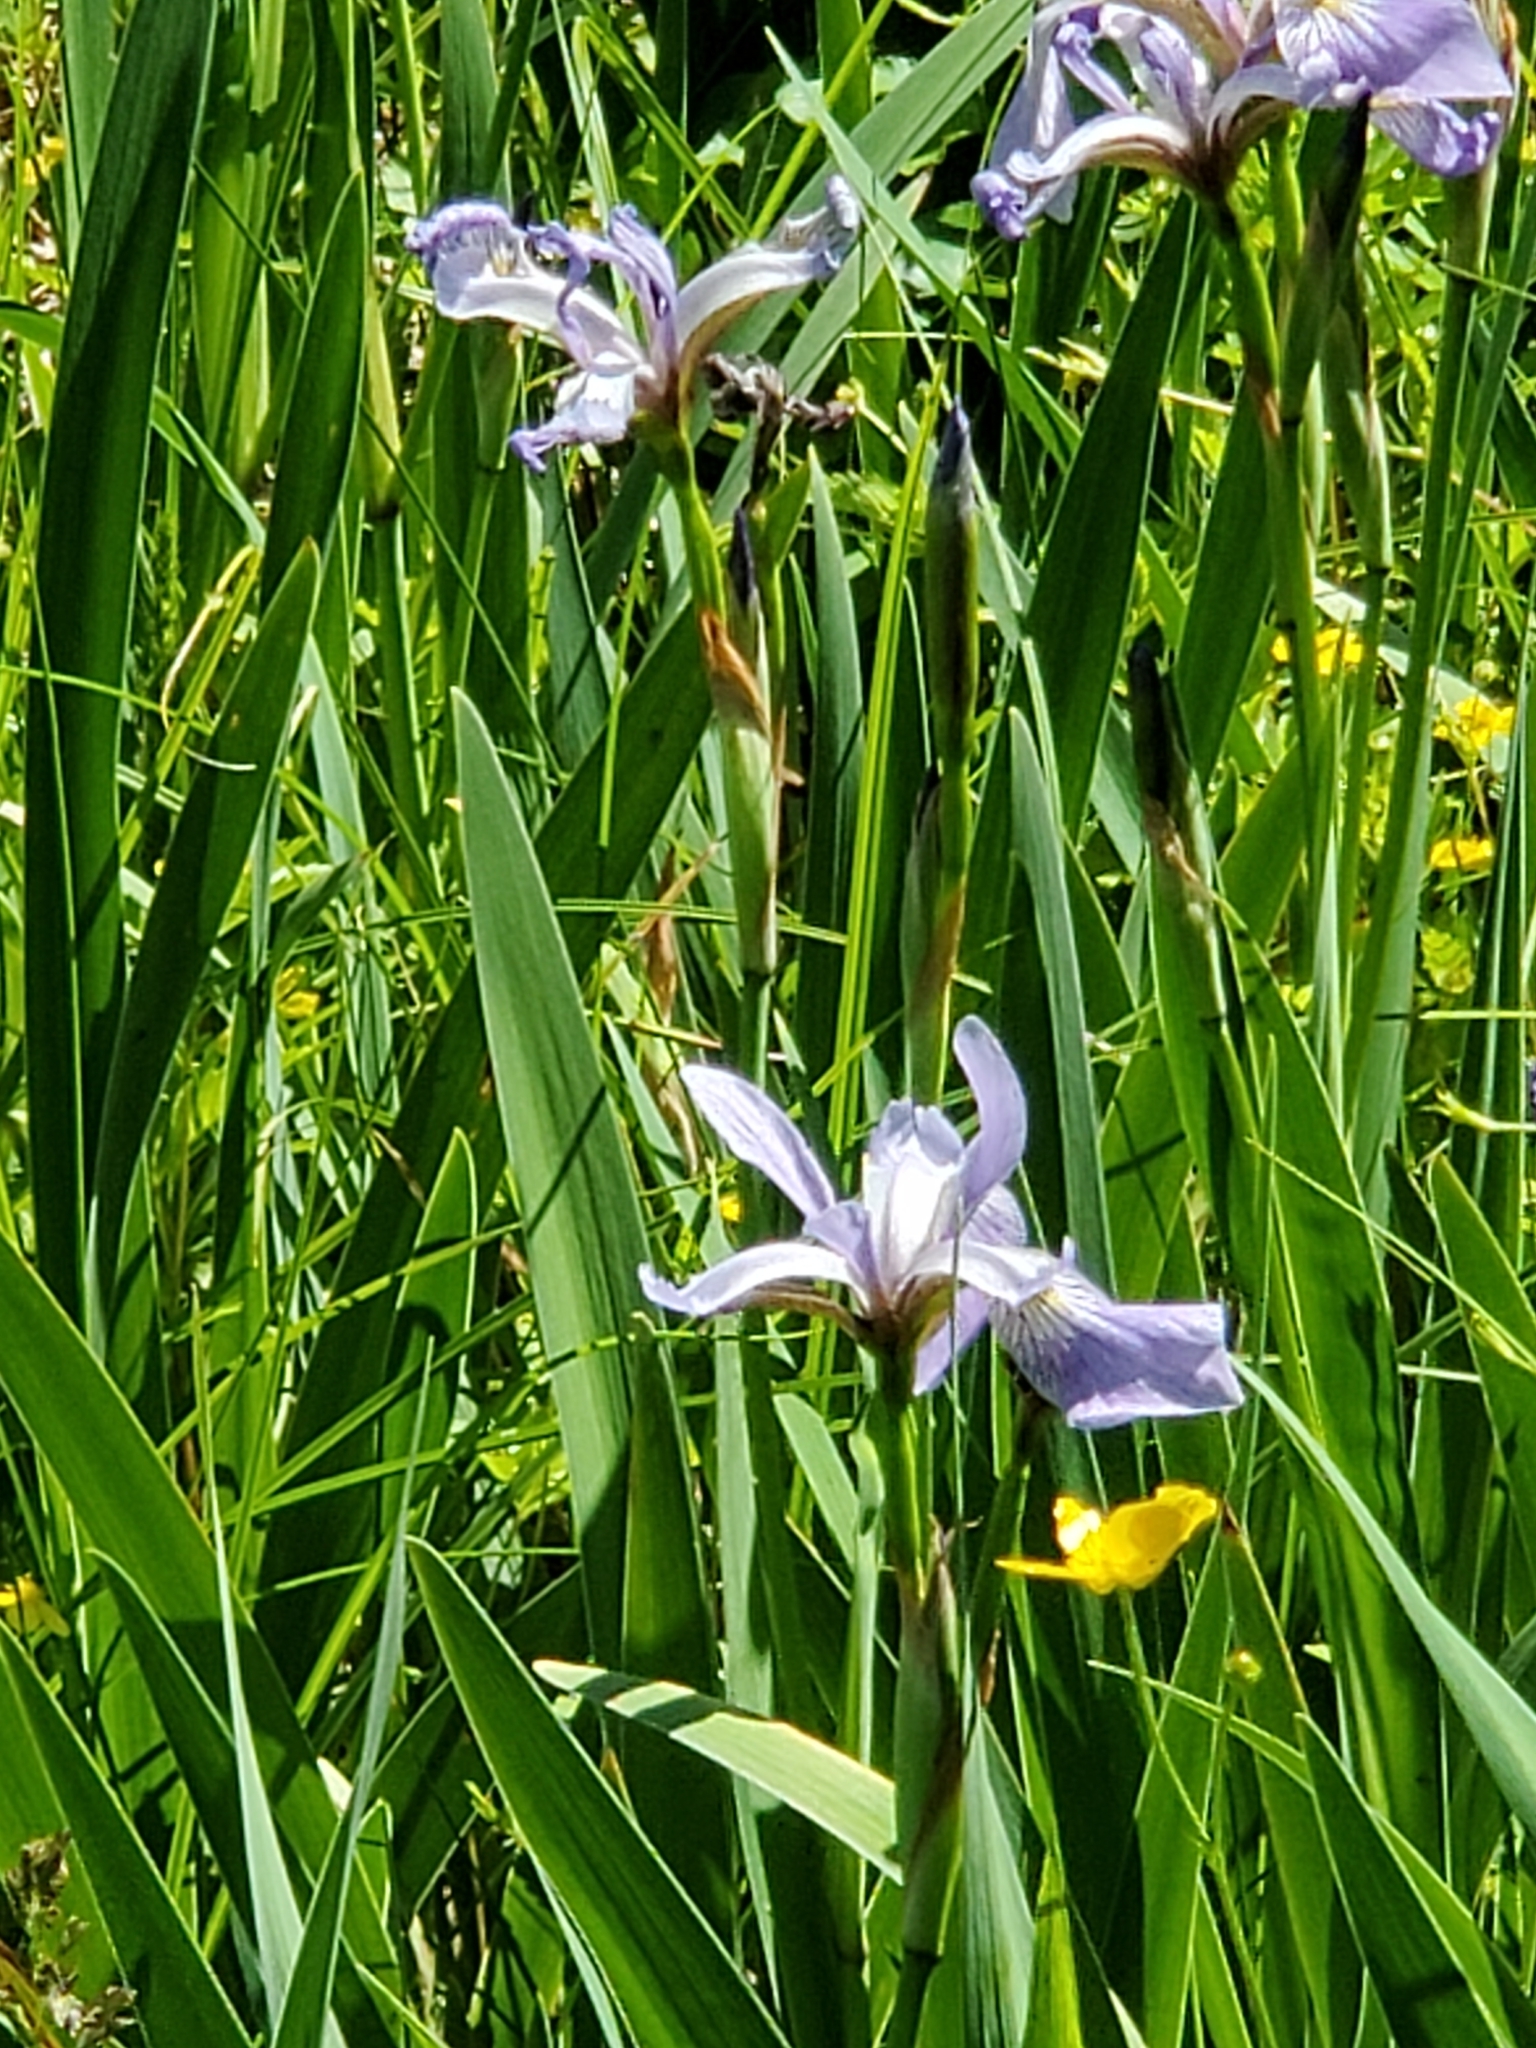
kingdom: Plantae
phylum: Tracheophyta
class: Liliopsida
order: Asparagales
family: Iridaceae
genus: Iris
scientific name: Iris versicolor
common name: Purple iris
